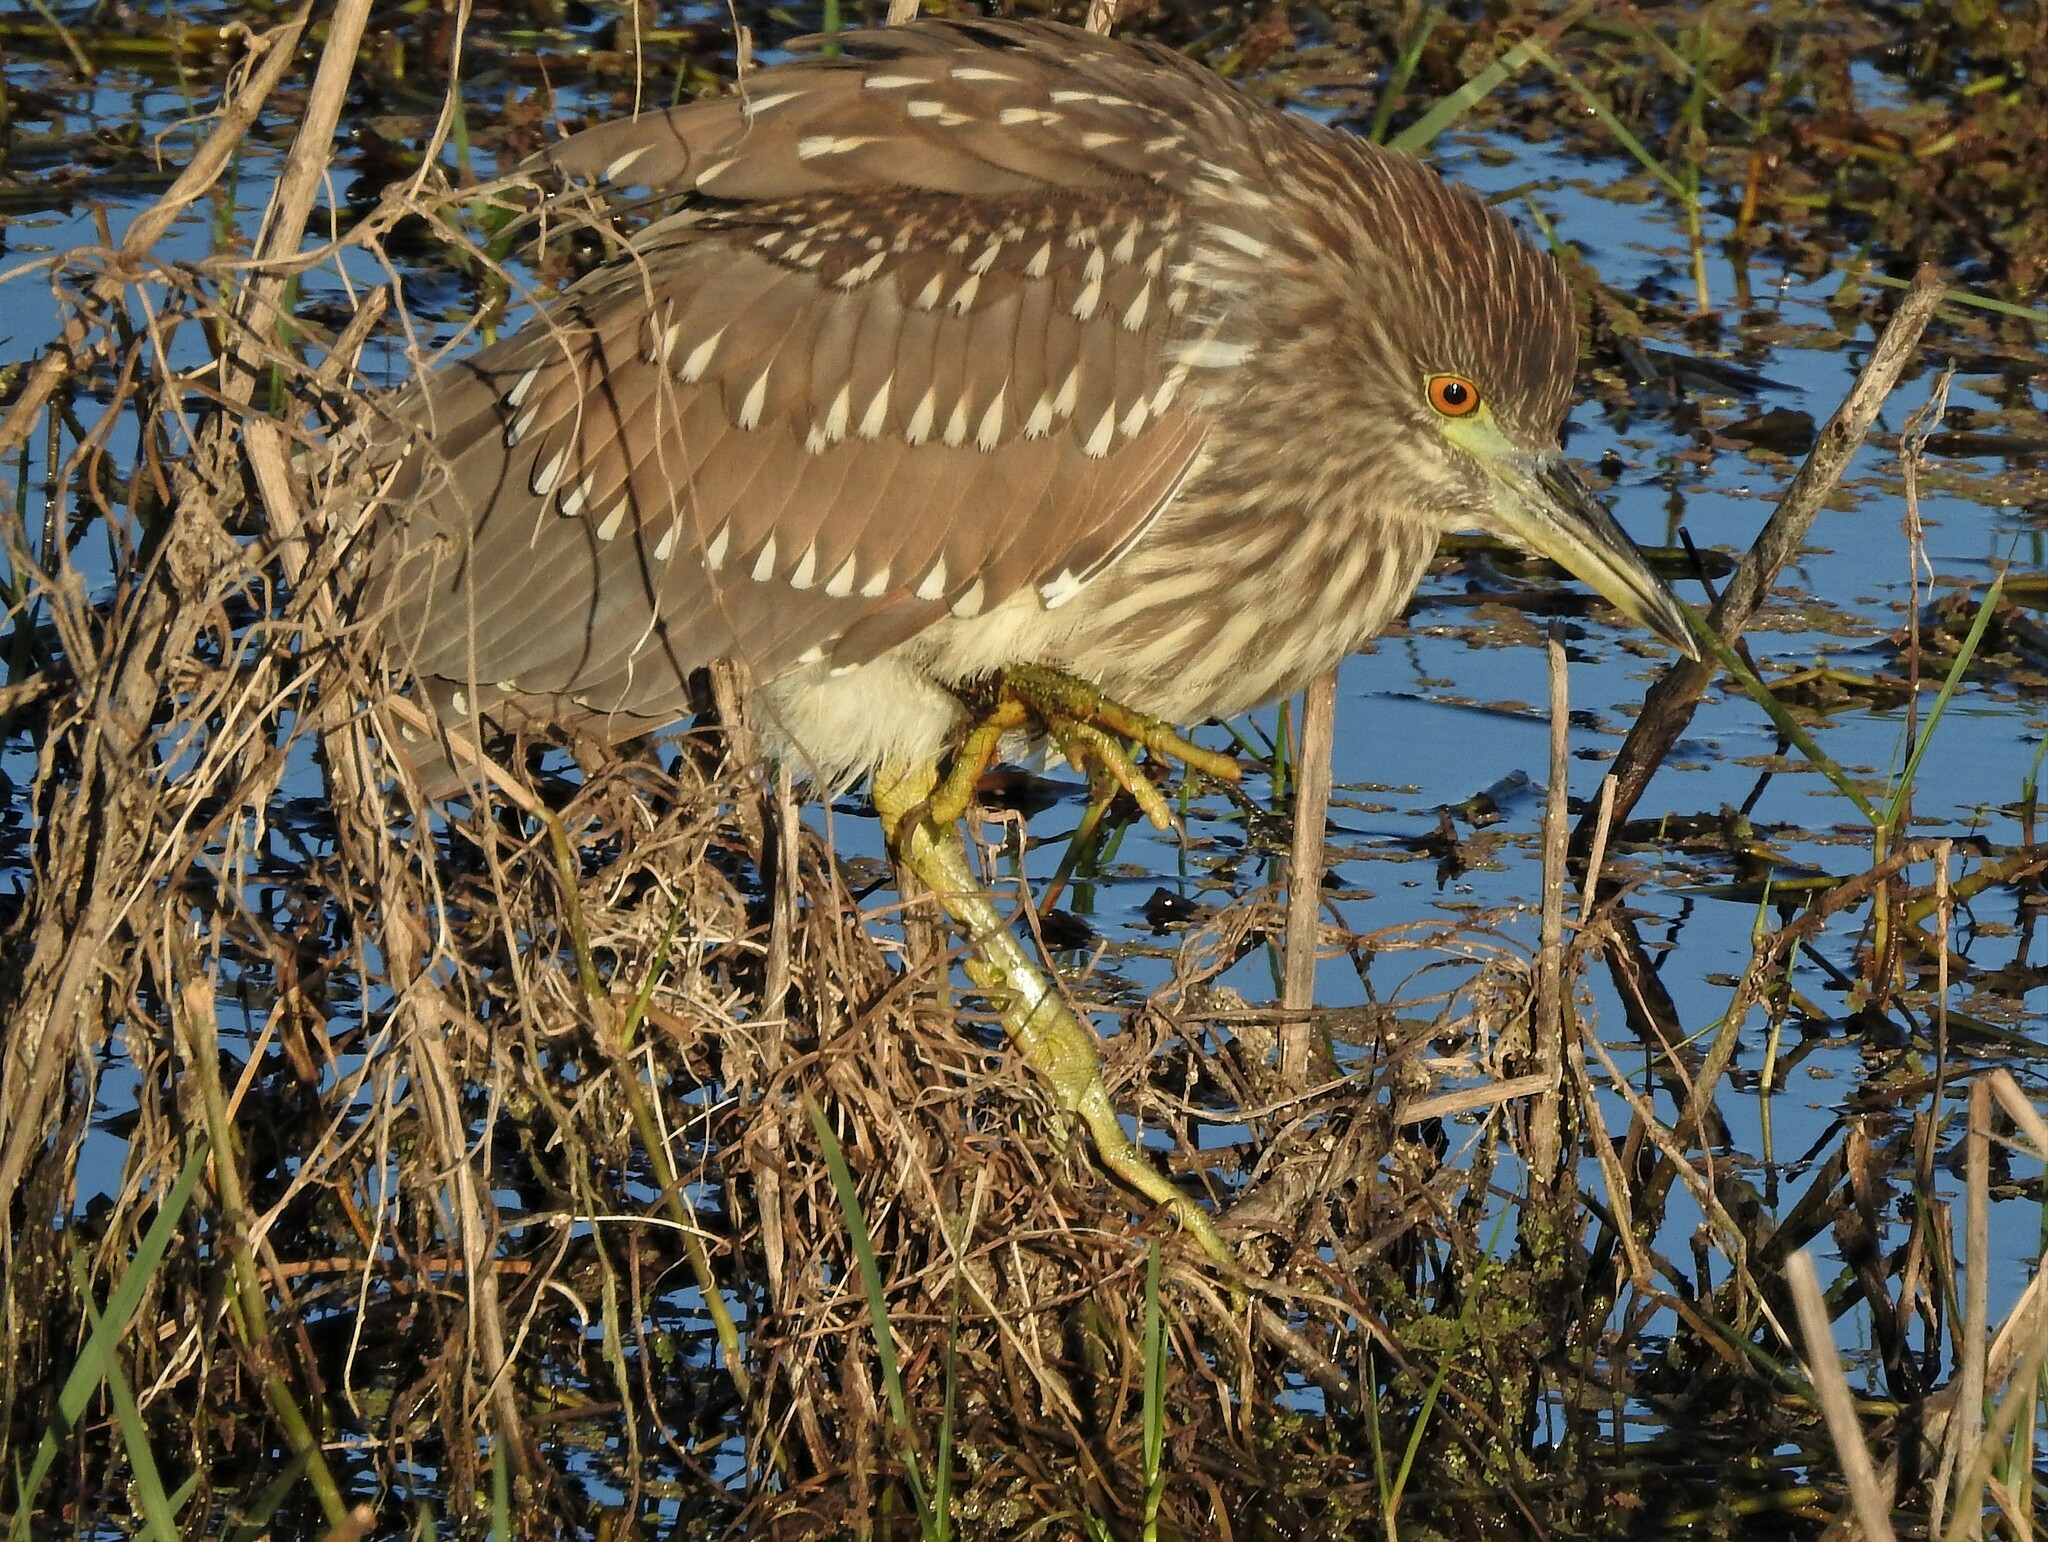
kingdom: Animalia
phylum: Chordata
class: Aves
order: Pelecaniformes
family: Ardeidae
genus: Nycticorax
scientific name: Nycticorax nycticorax
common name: Black-crowned night heron
